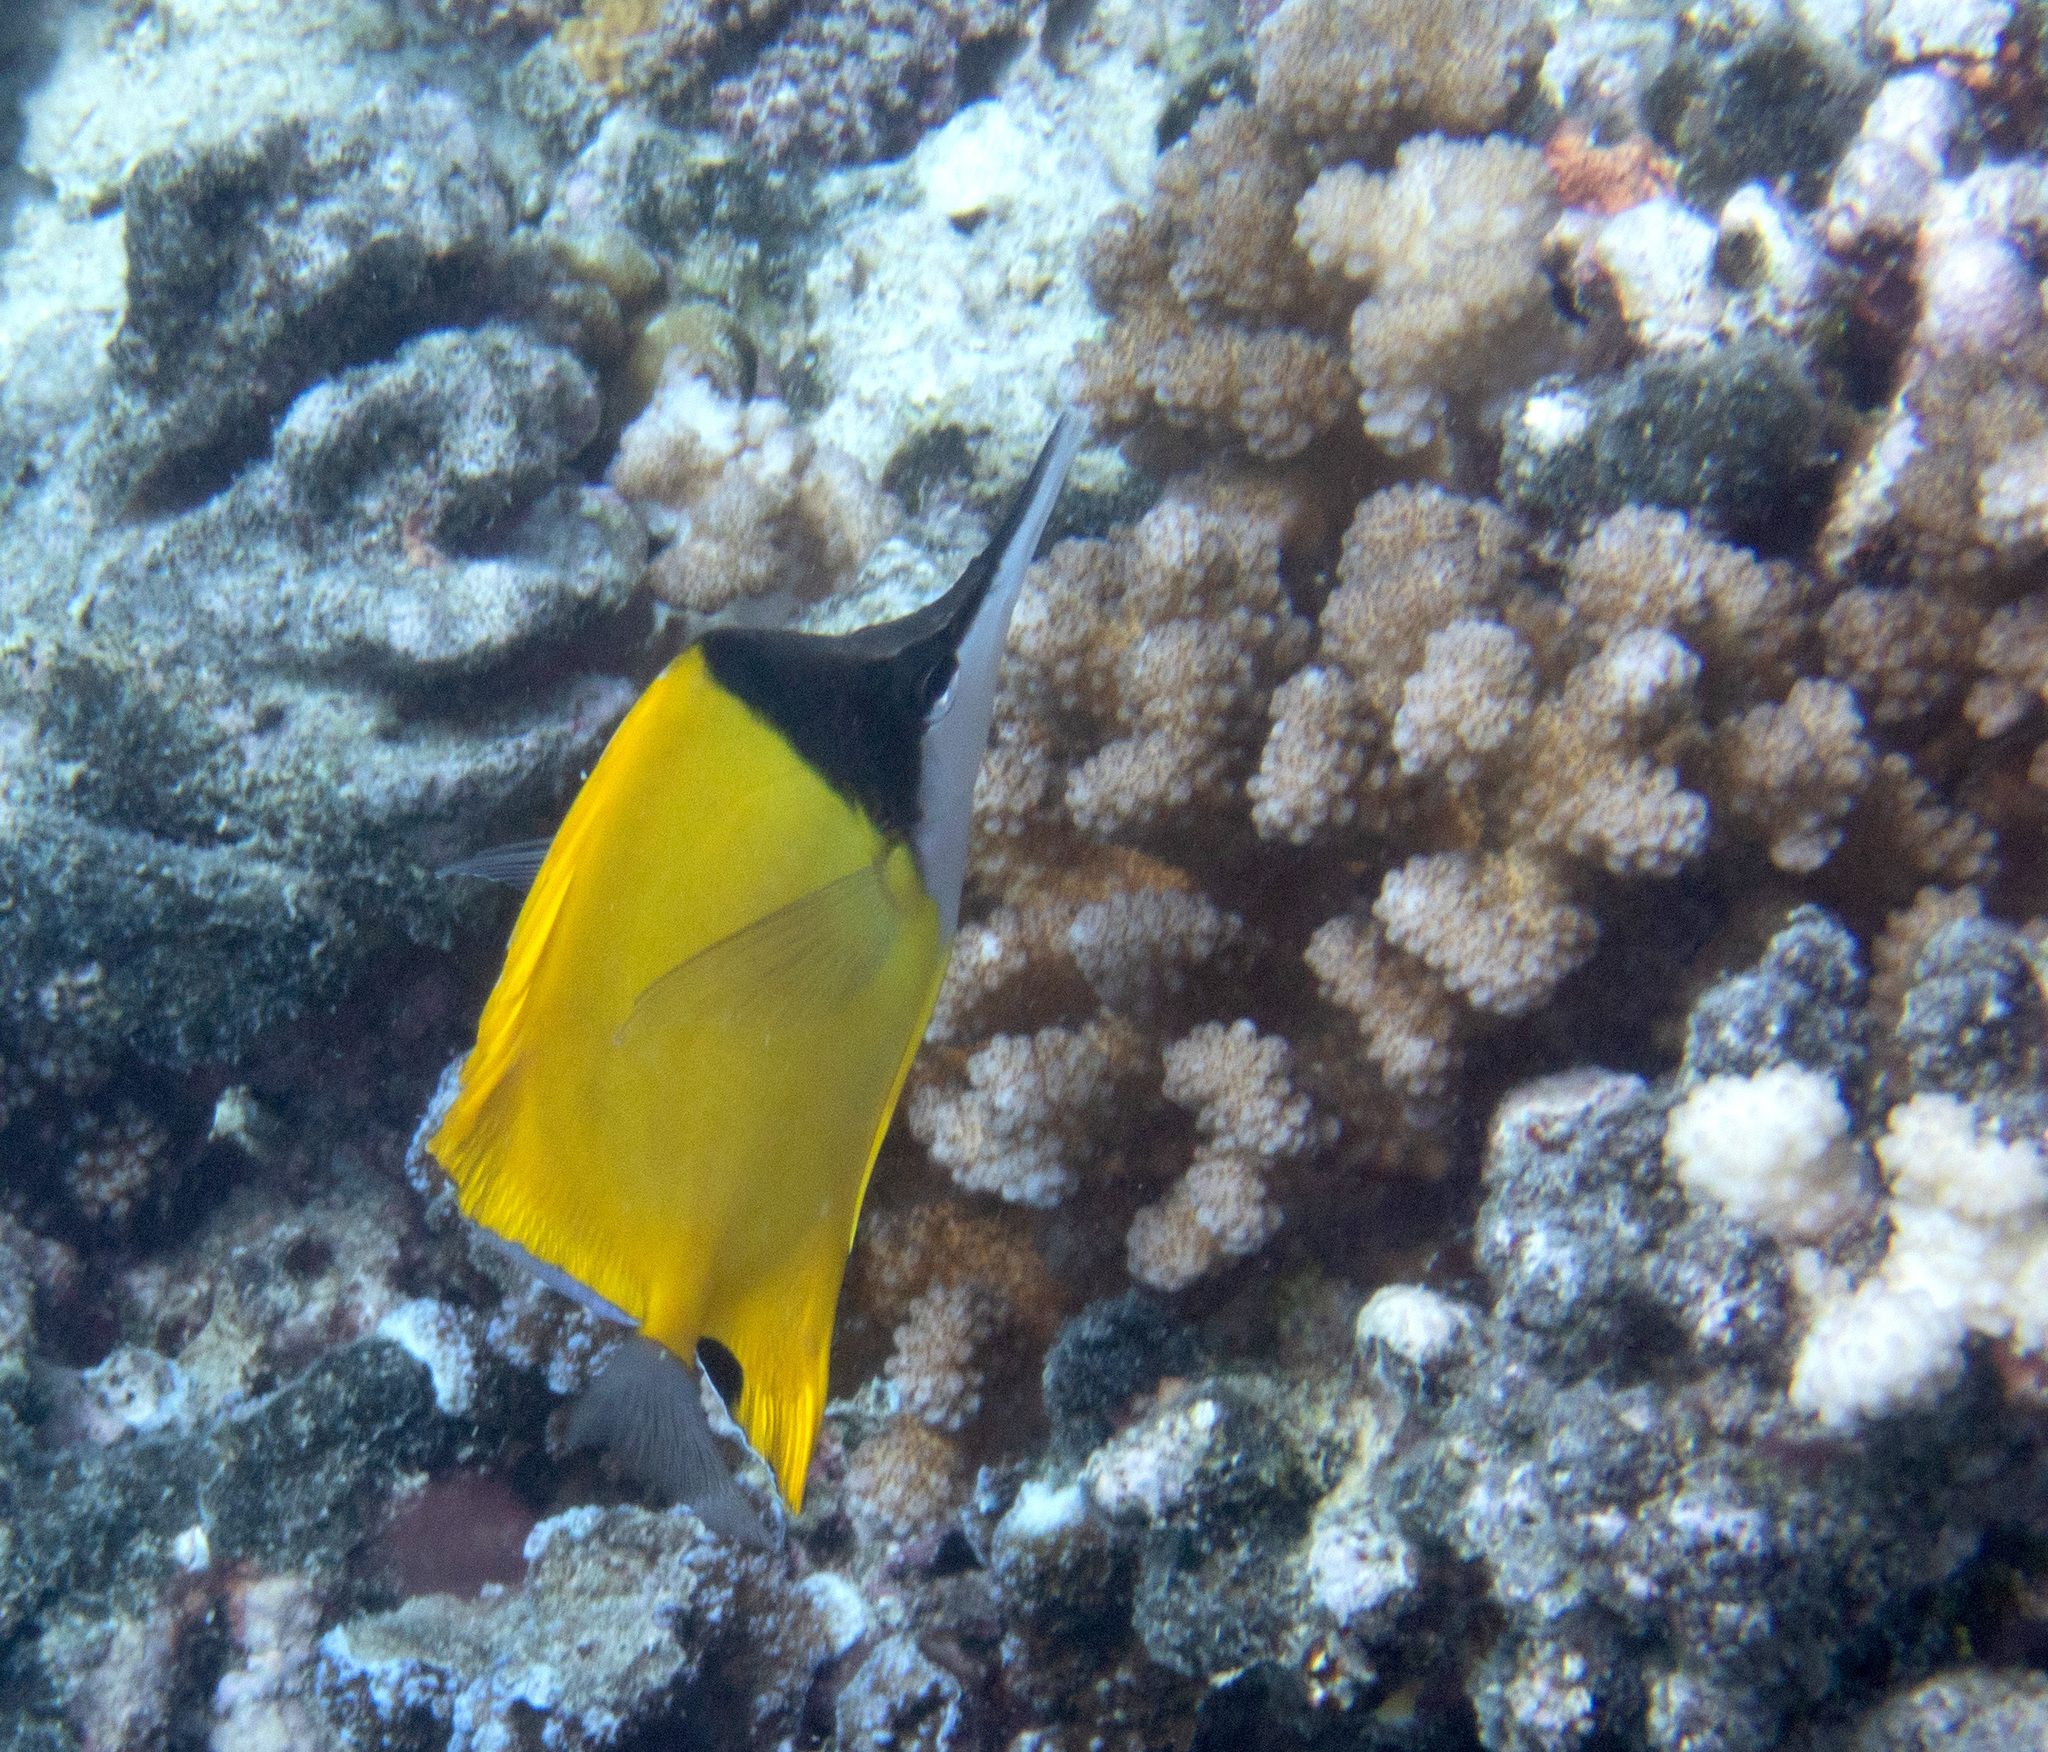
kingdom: Animalia
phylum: Chordata
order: Perciformes
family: Chaetodontidae
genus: Forcipiger
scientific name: Forcipiger flavissimus
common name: Forcepsfish
